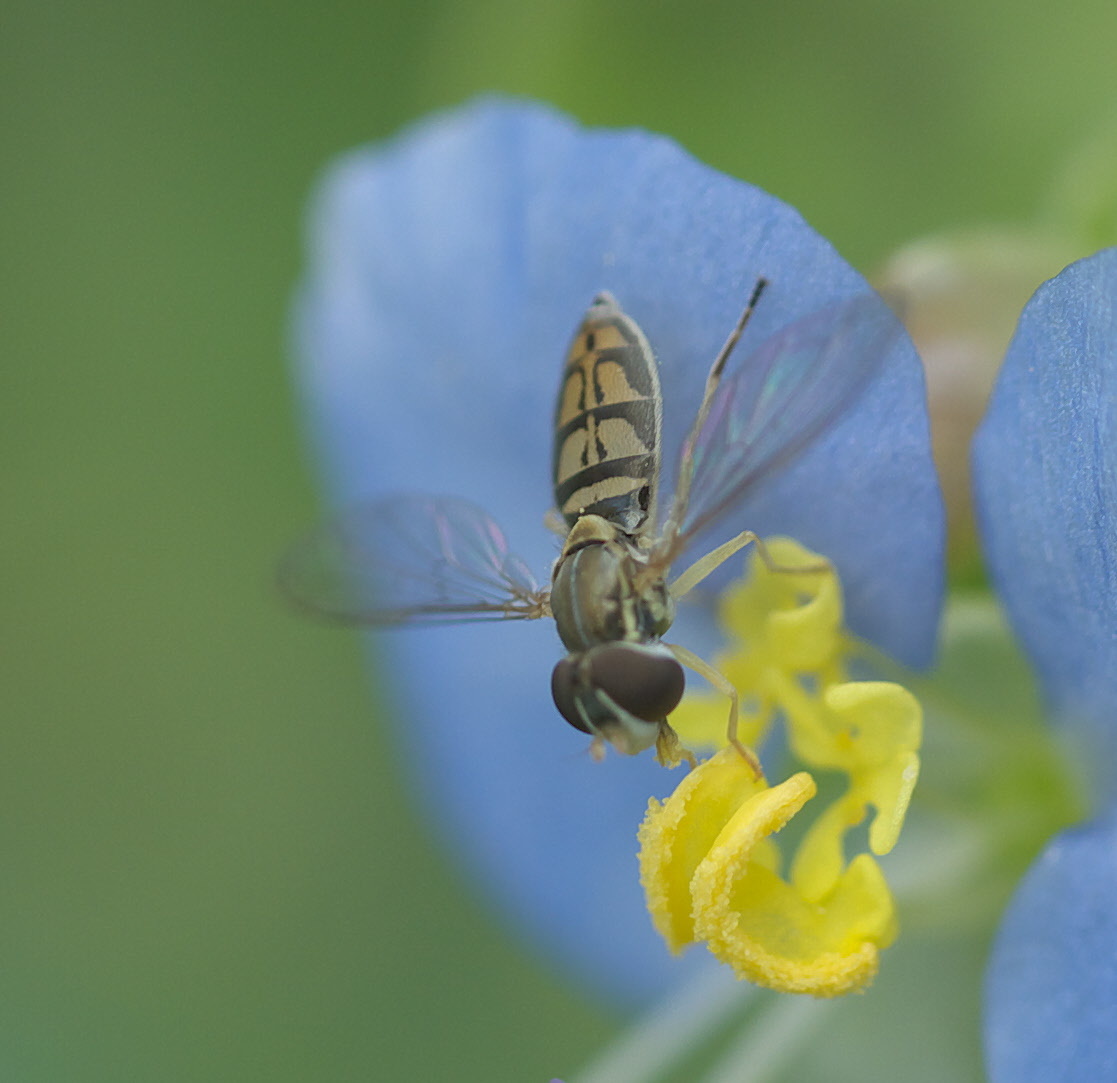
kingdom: Animalia
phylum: Arthropoda
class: Insecta
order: Diptera
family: Syrphidae
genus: Toxomerus
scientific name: Toxomerus marginatus
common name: Syrphid fly
